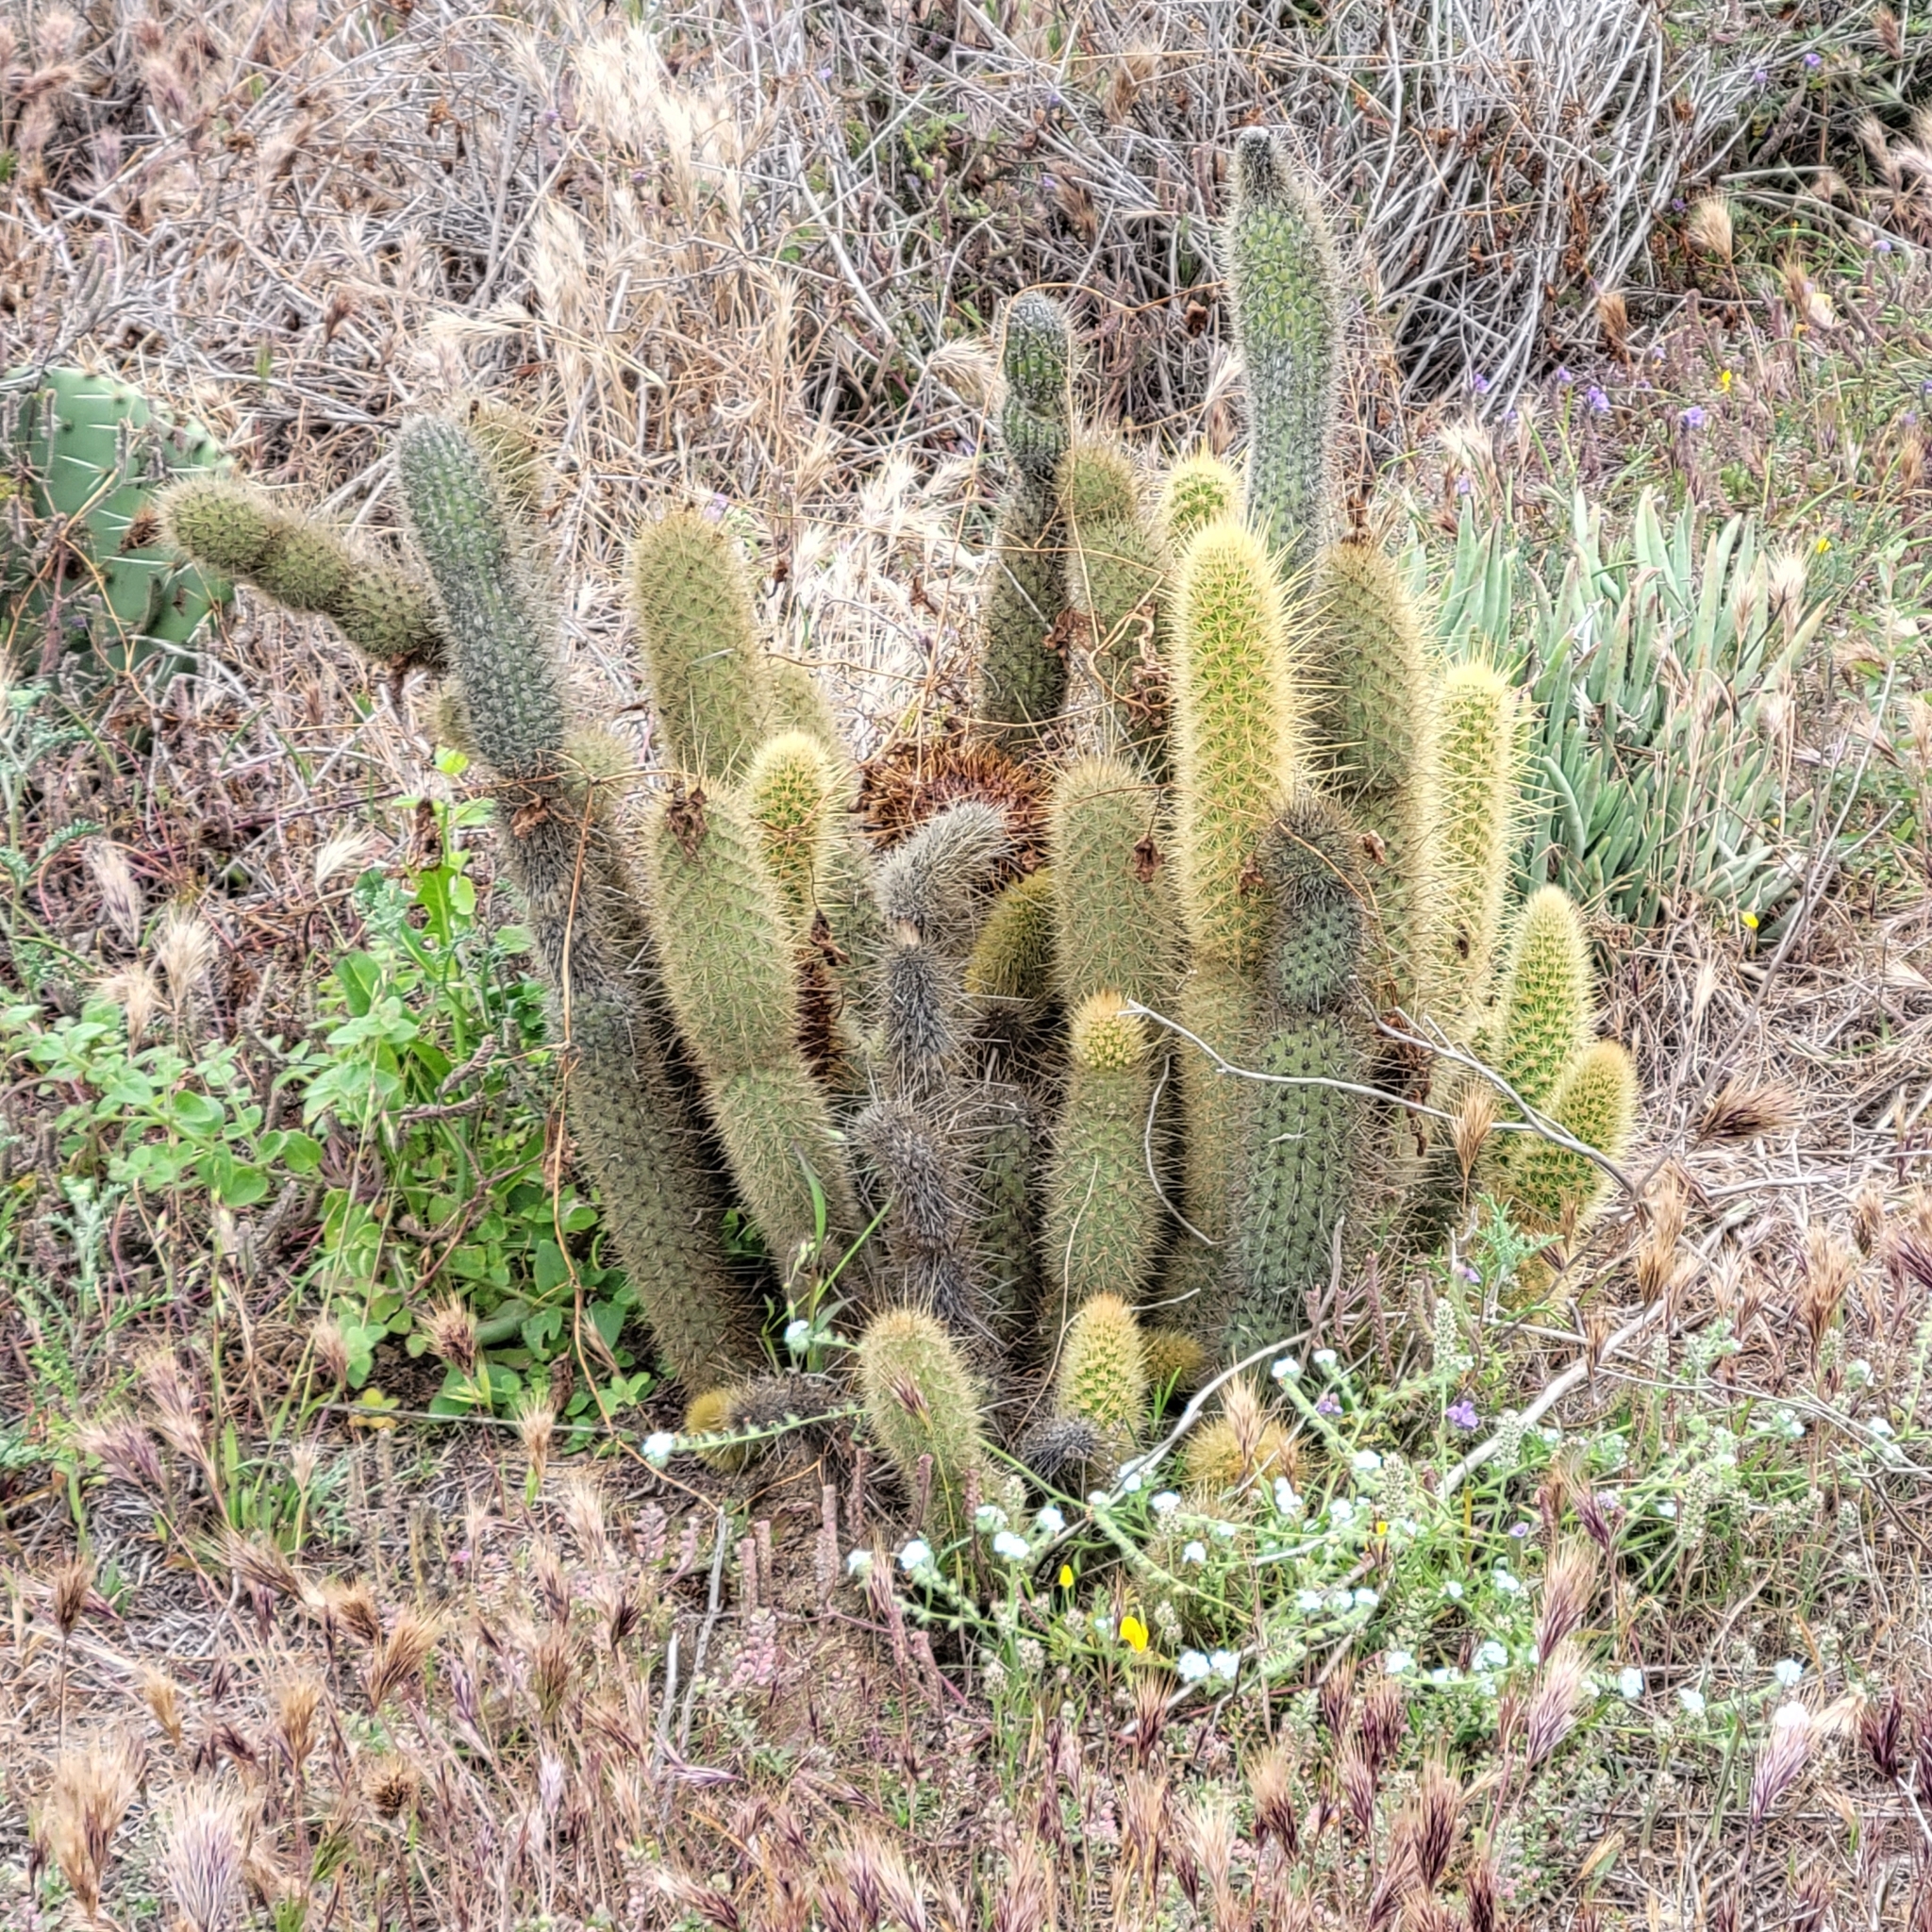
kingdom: Plantae
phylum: Tracheophyta
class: Magnoliopsida
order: Caryophyllales
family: Cactaceae
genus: Bergerocactus
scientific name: Bergerocactus emoryi
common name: Golden snakecactus
